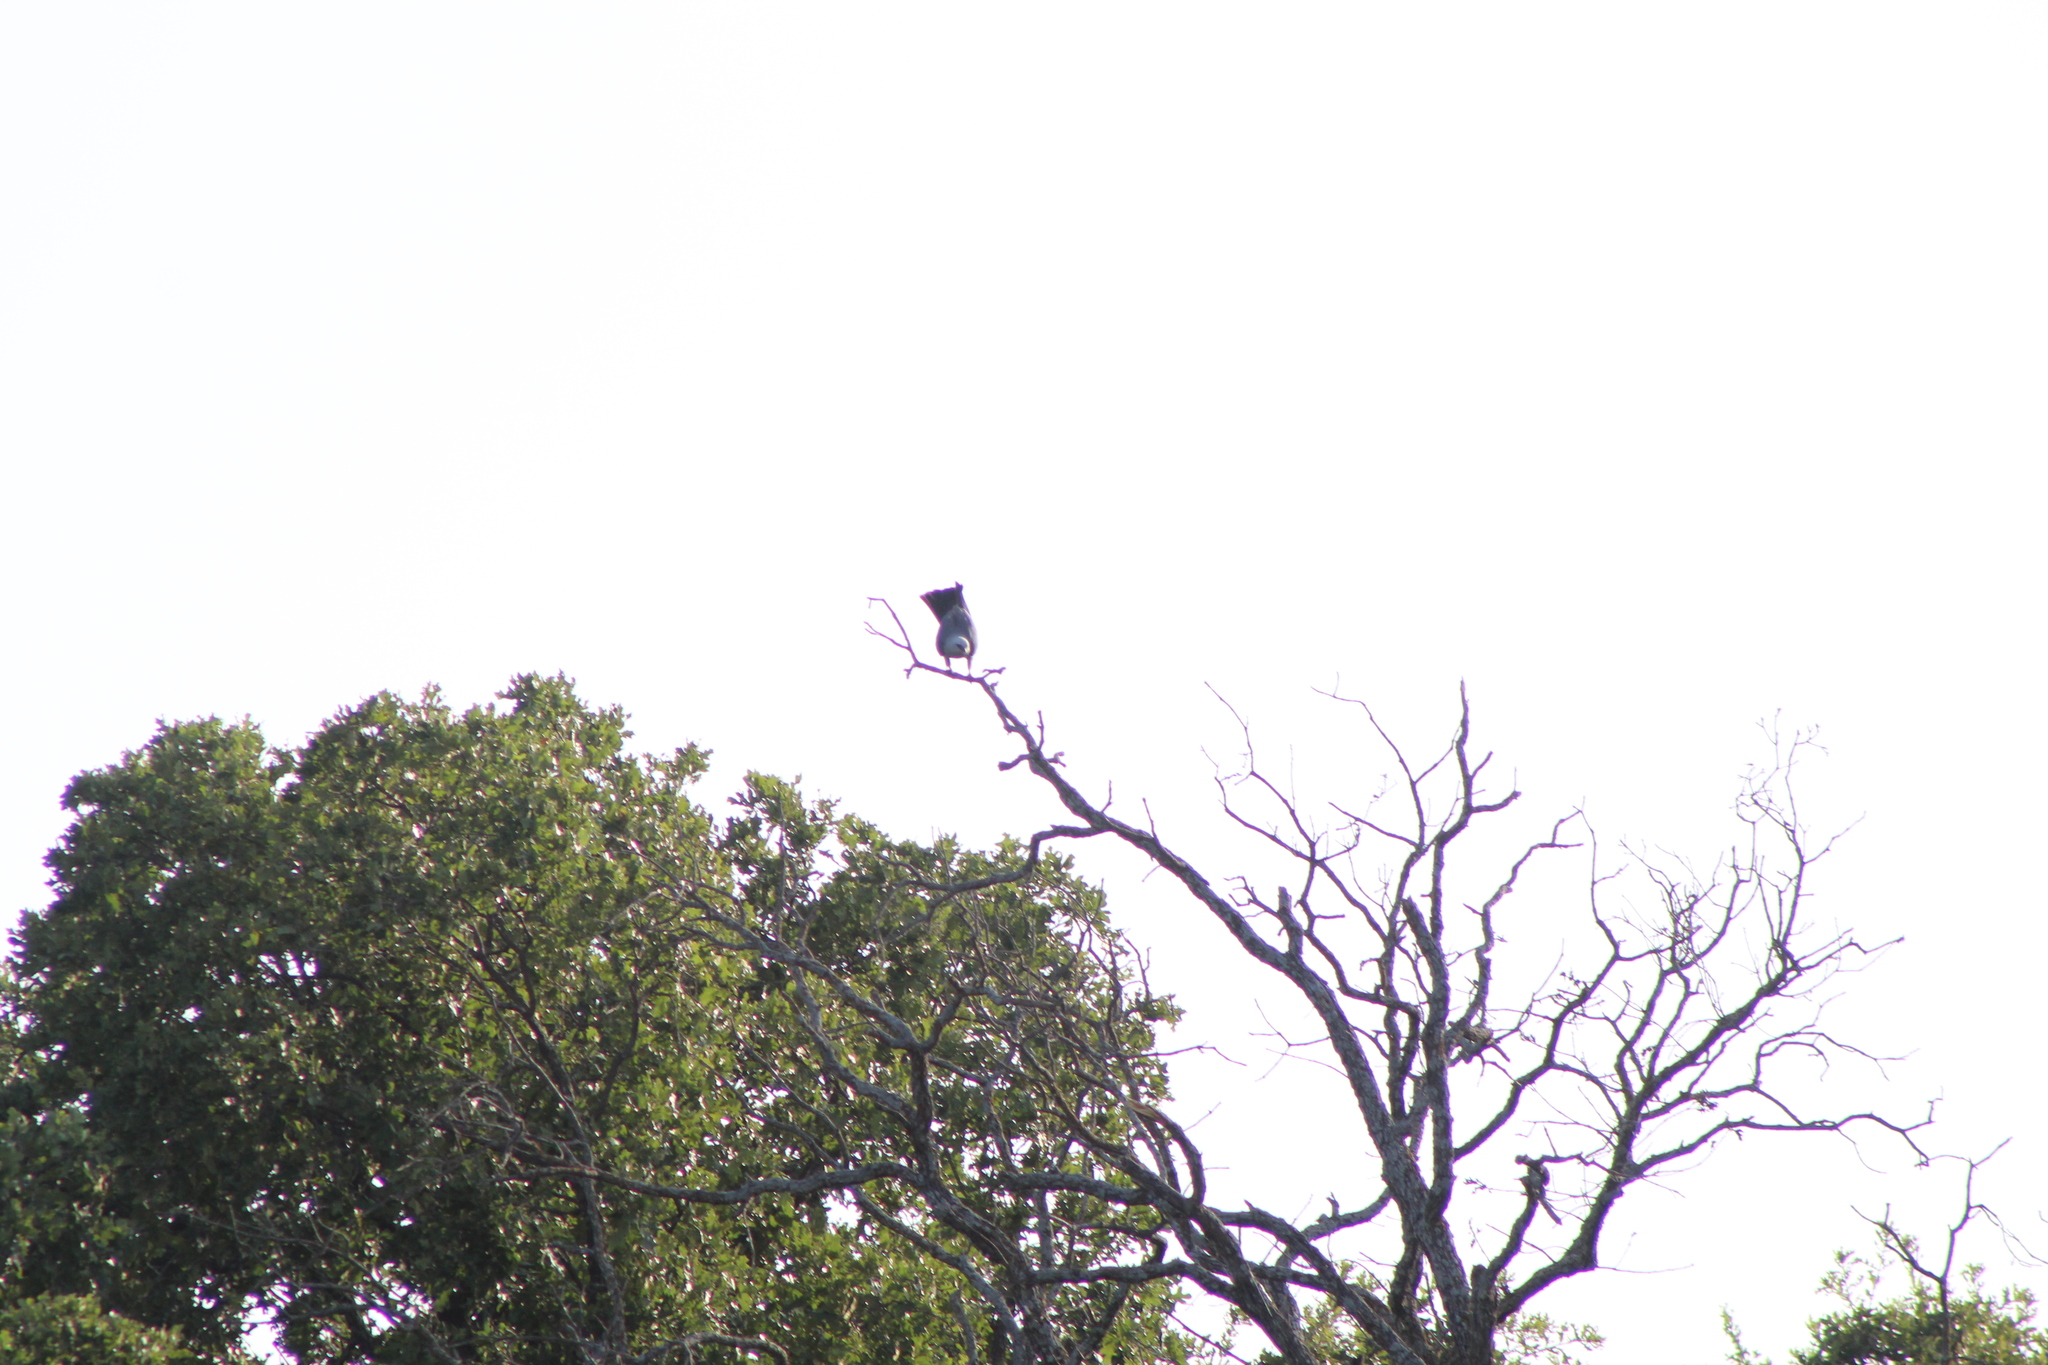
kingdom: Animalia
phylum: Chordata
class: Aves
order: Accipitriformes
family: Accipitridae
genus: Ictinia
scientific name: Ictinia mississippiensis
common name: Mississippi kite
